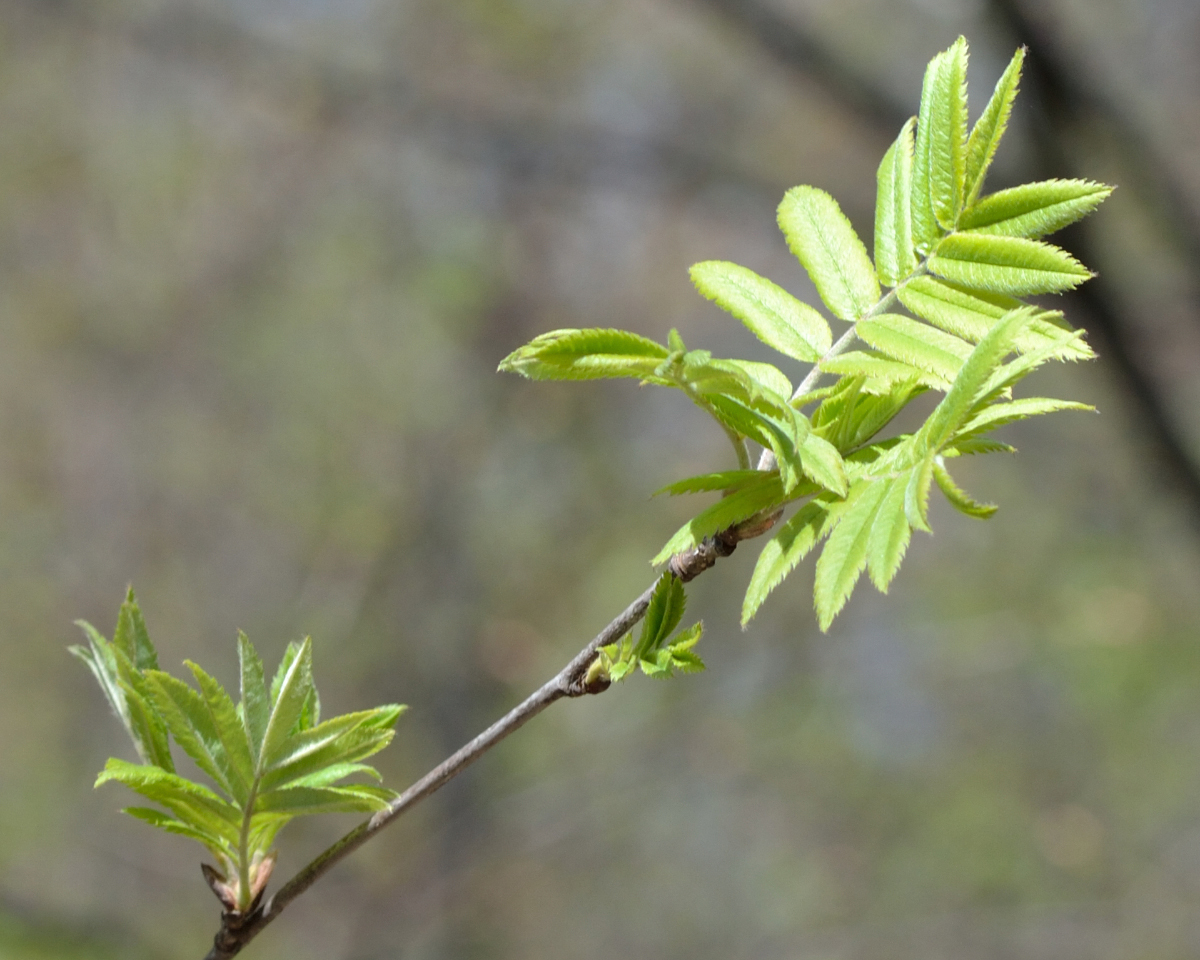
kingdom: Plantae
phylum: Tracheophyta
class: Magnoliopsida
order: Rosales
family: Rosaceae
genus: Sorbus
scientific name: Sorbus aucuparia
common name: Rowan
